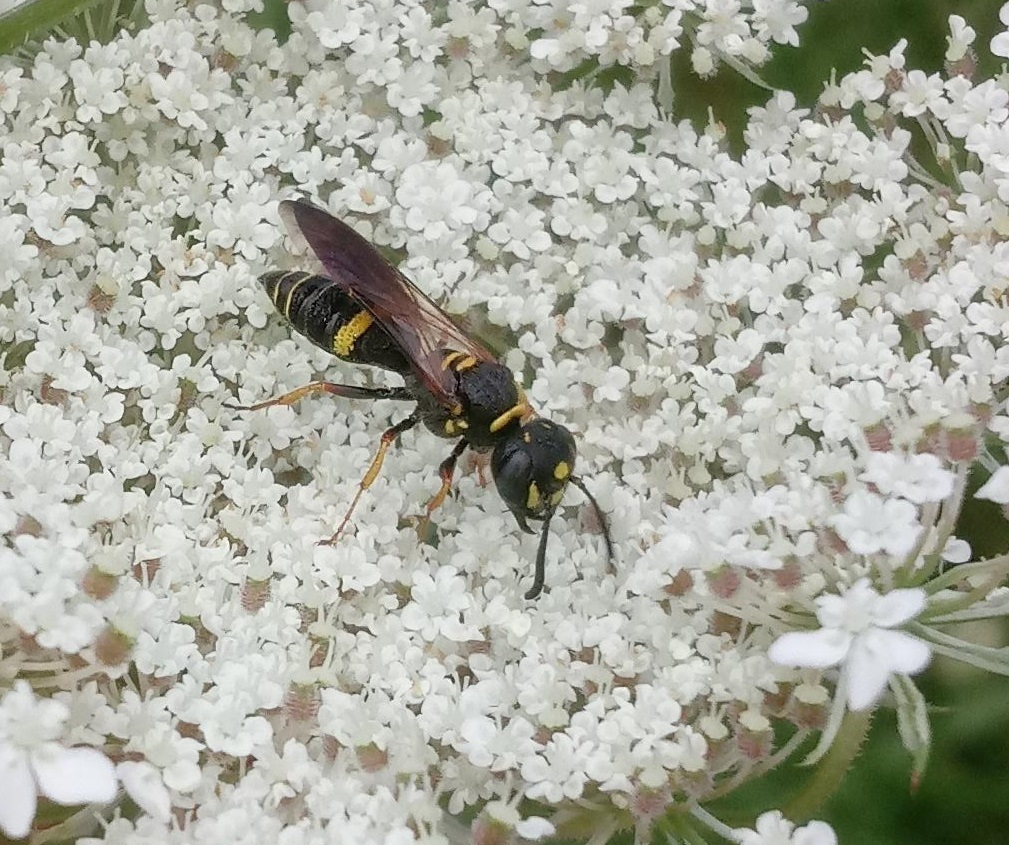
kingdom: Animalia
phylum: Arthropoda
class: Insecta
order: Hymenoptera
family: Crabronidae
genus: Philanthus
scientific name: Philanthus gibbosus
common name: Humped beewolf
